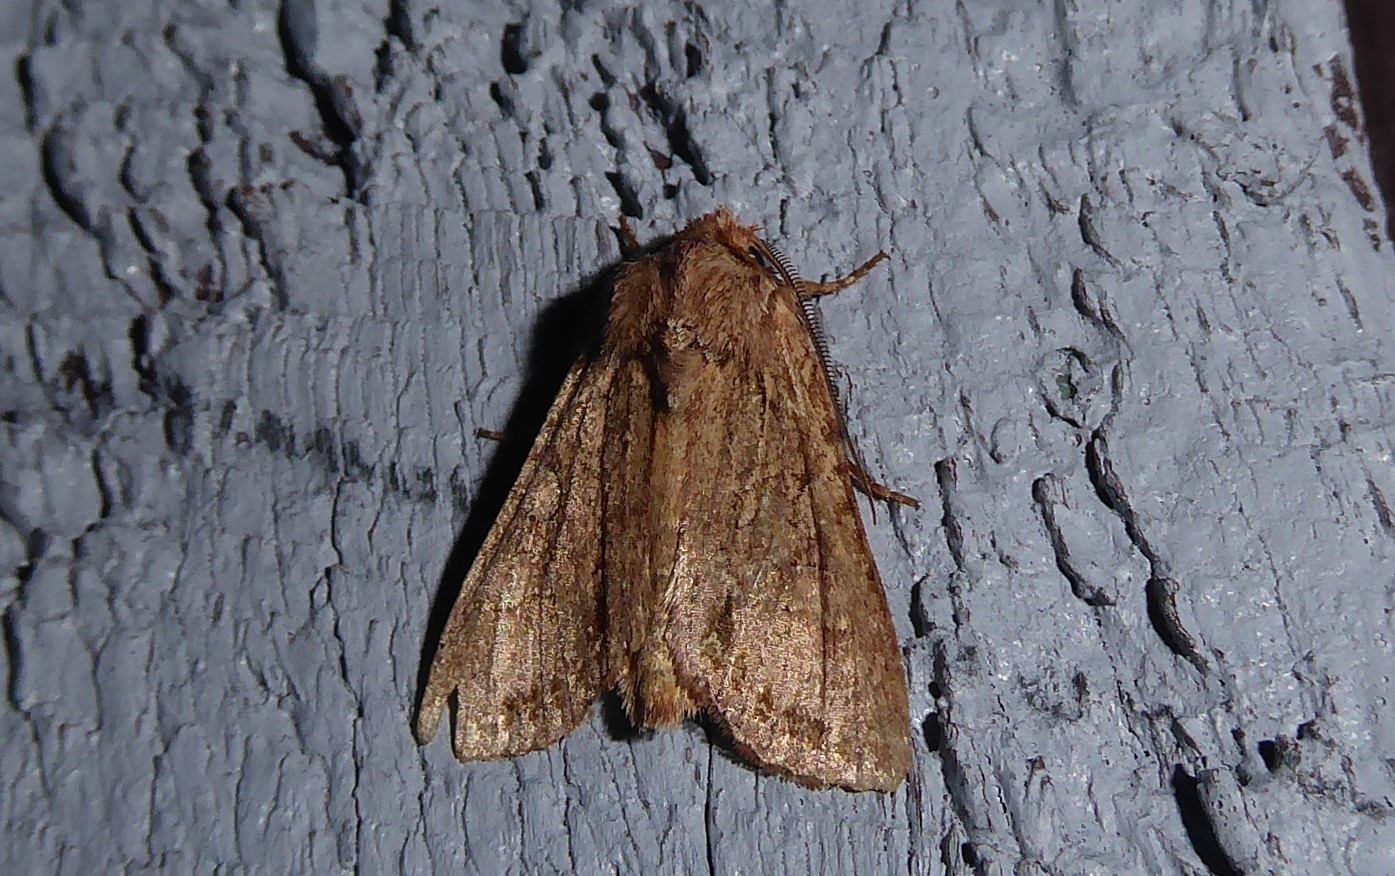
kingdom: Animalia
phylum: Arthropoda
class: Insecta
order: Lepidoptera
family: Noctuidae
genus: Ichneutica
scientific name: Ichneutica
